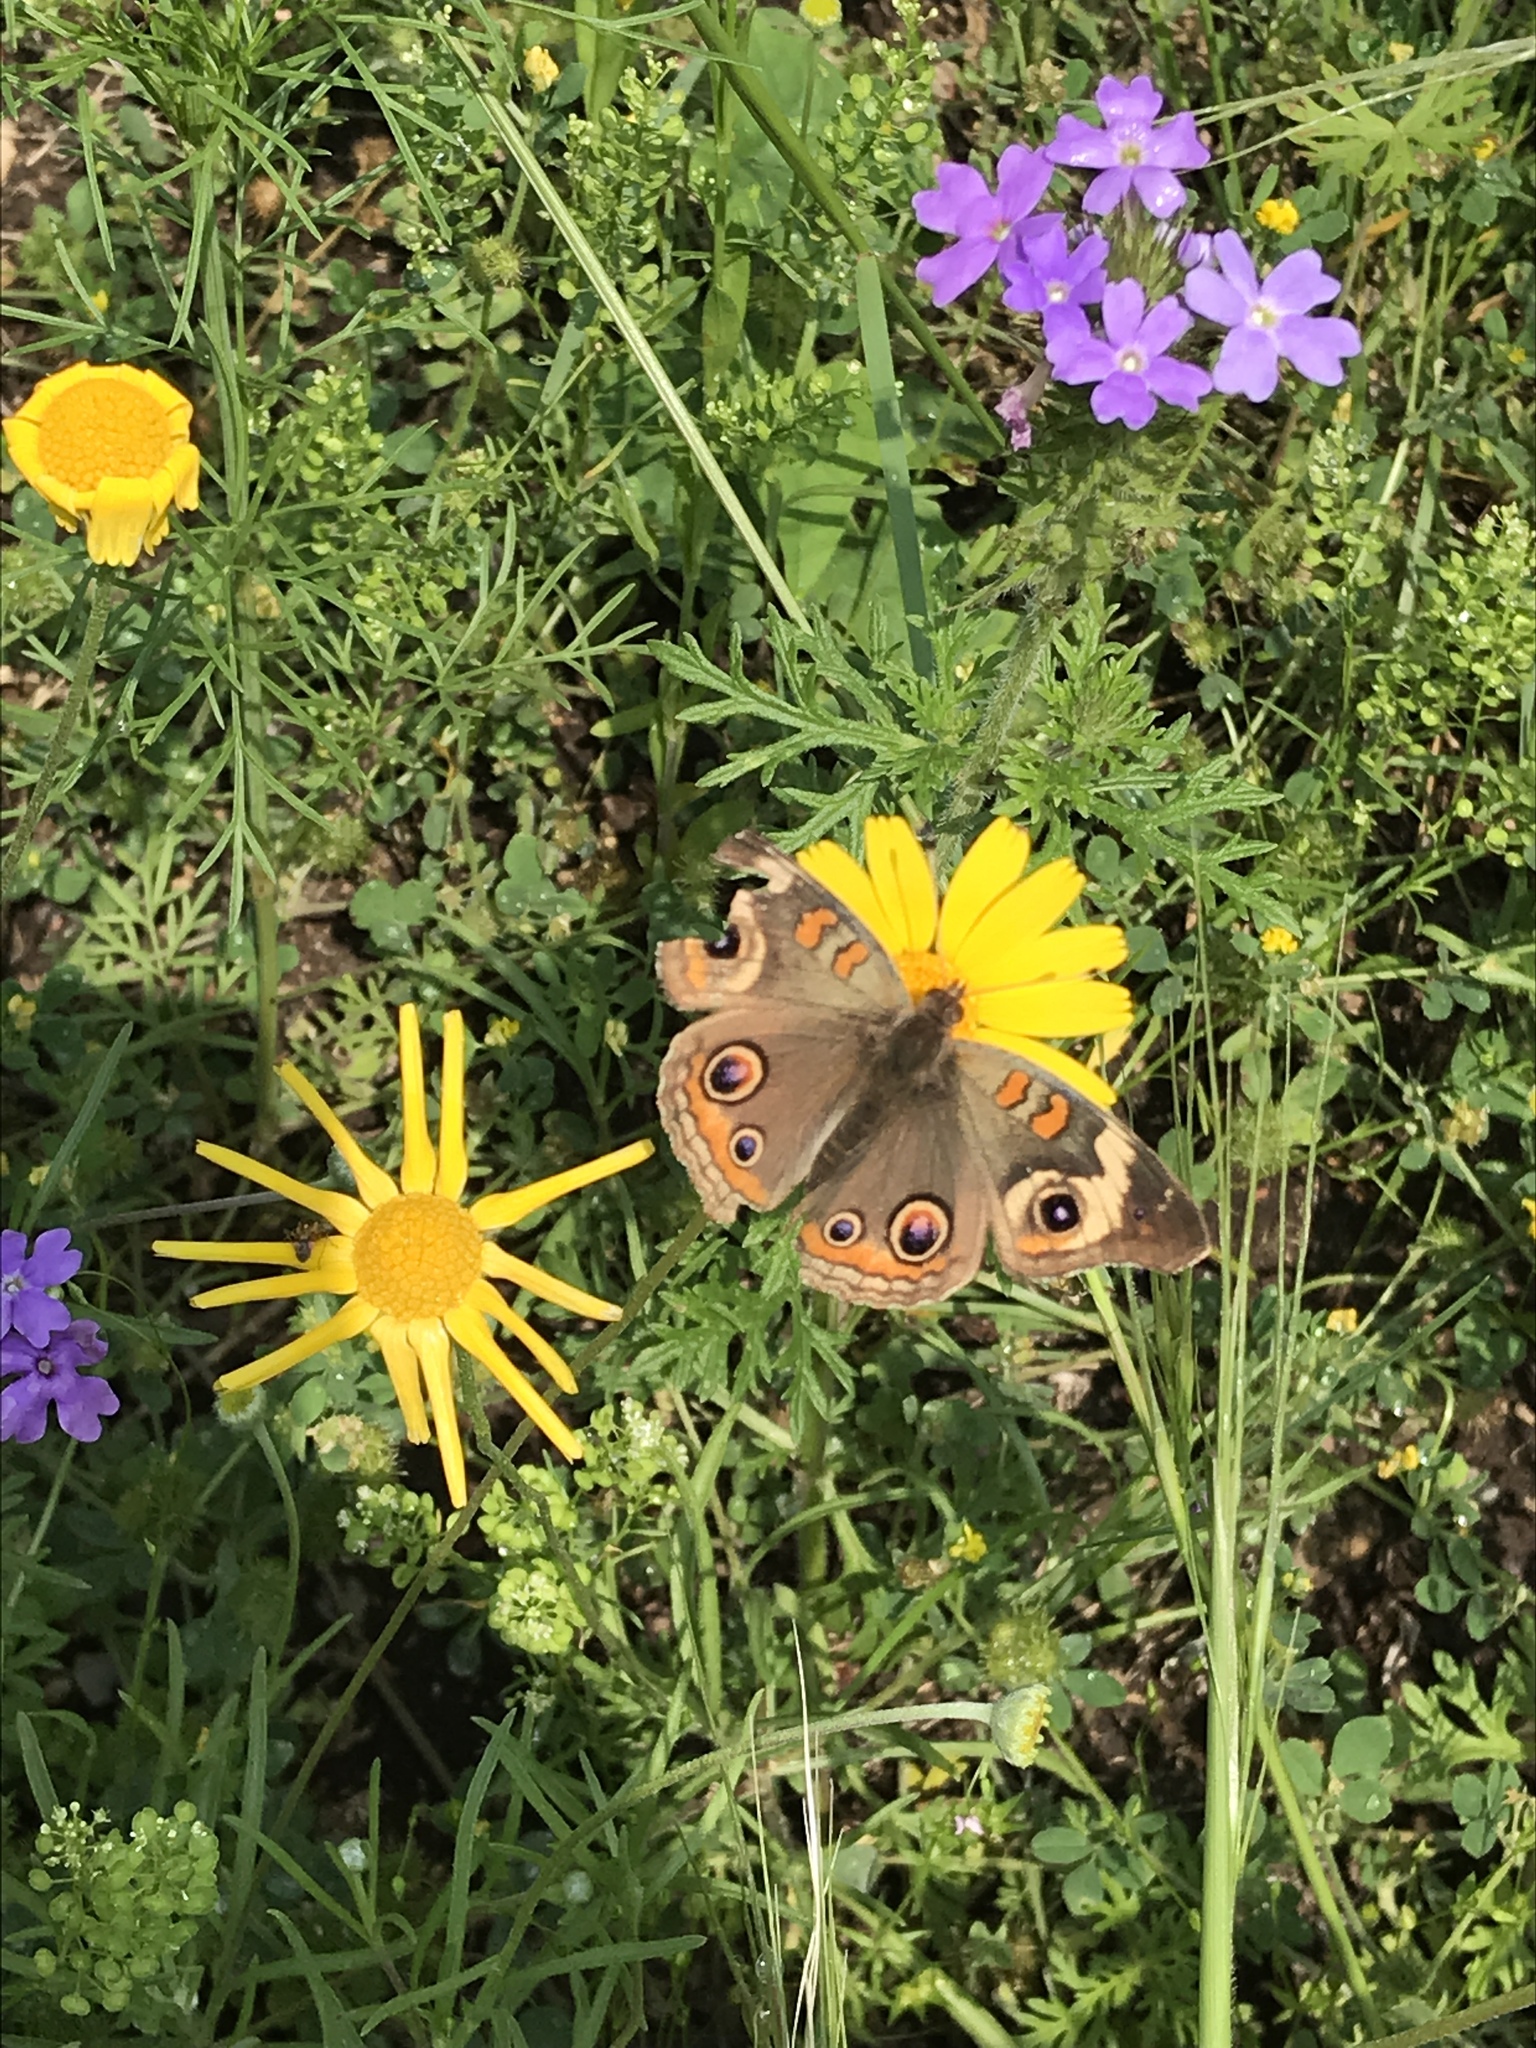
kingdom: Animalia
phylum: Arthropoda
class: Insecta
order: Lepidoptera
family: Nymphalidae
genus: Junonia
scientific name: Junonia coenia
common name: Common buckeye
